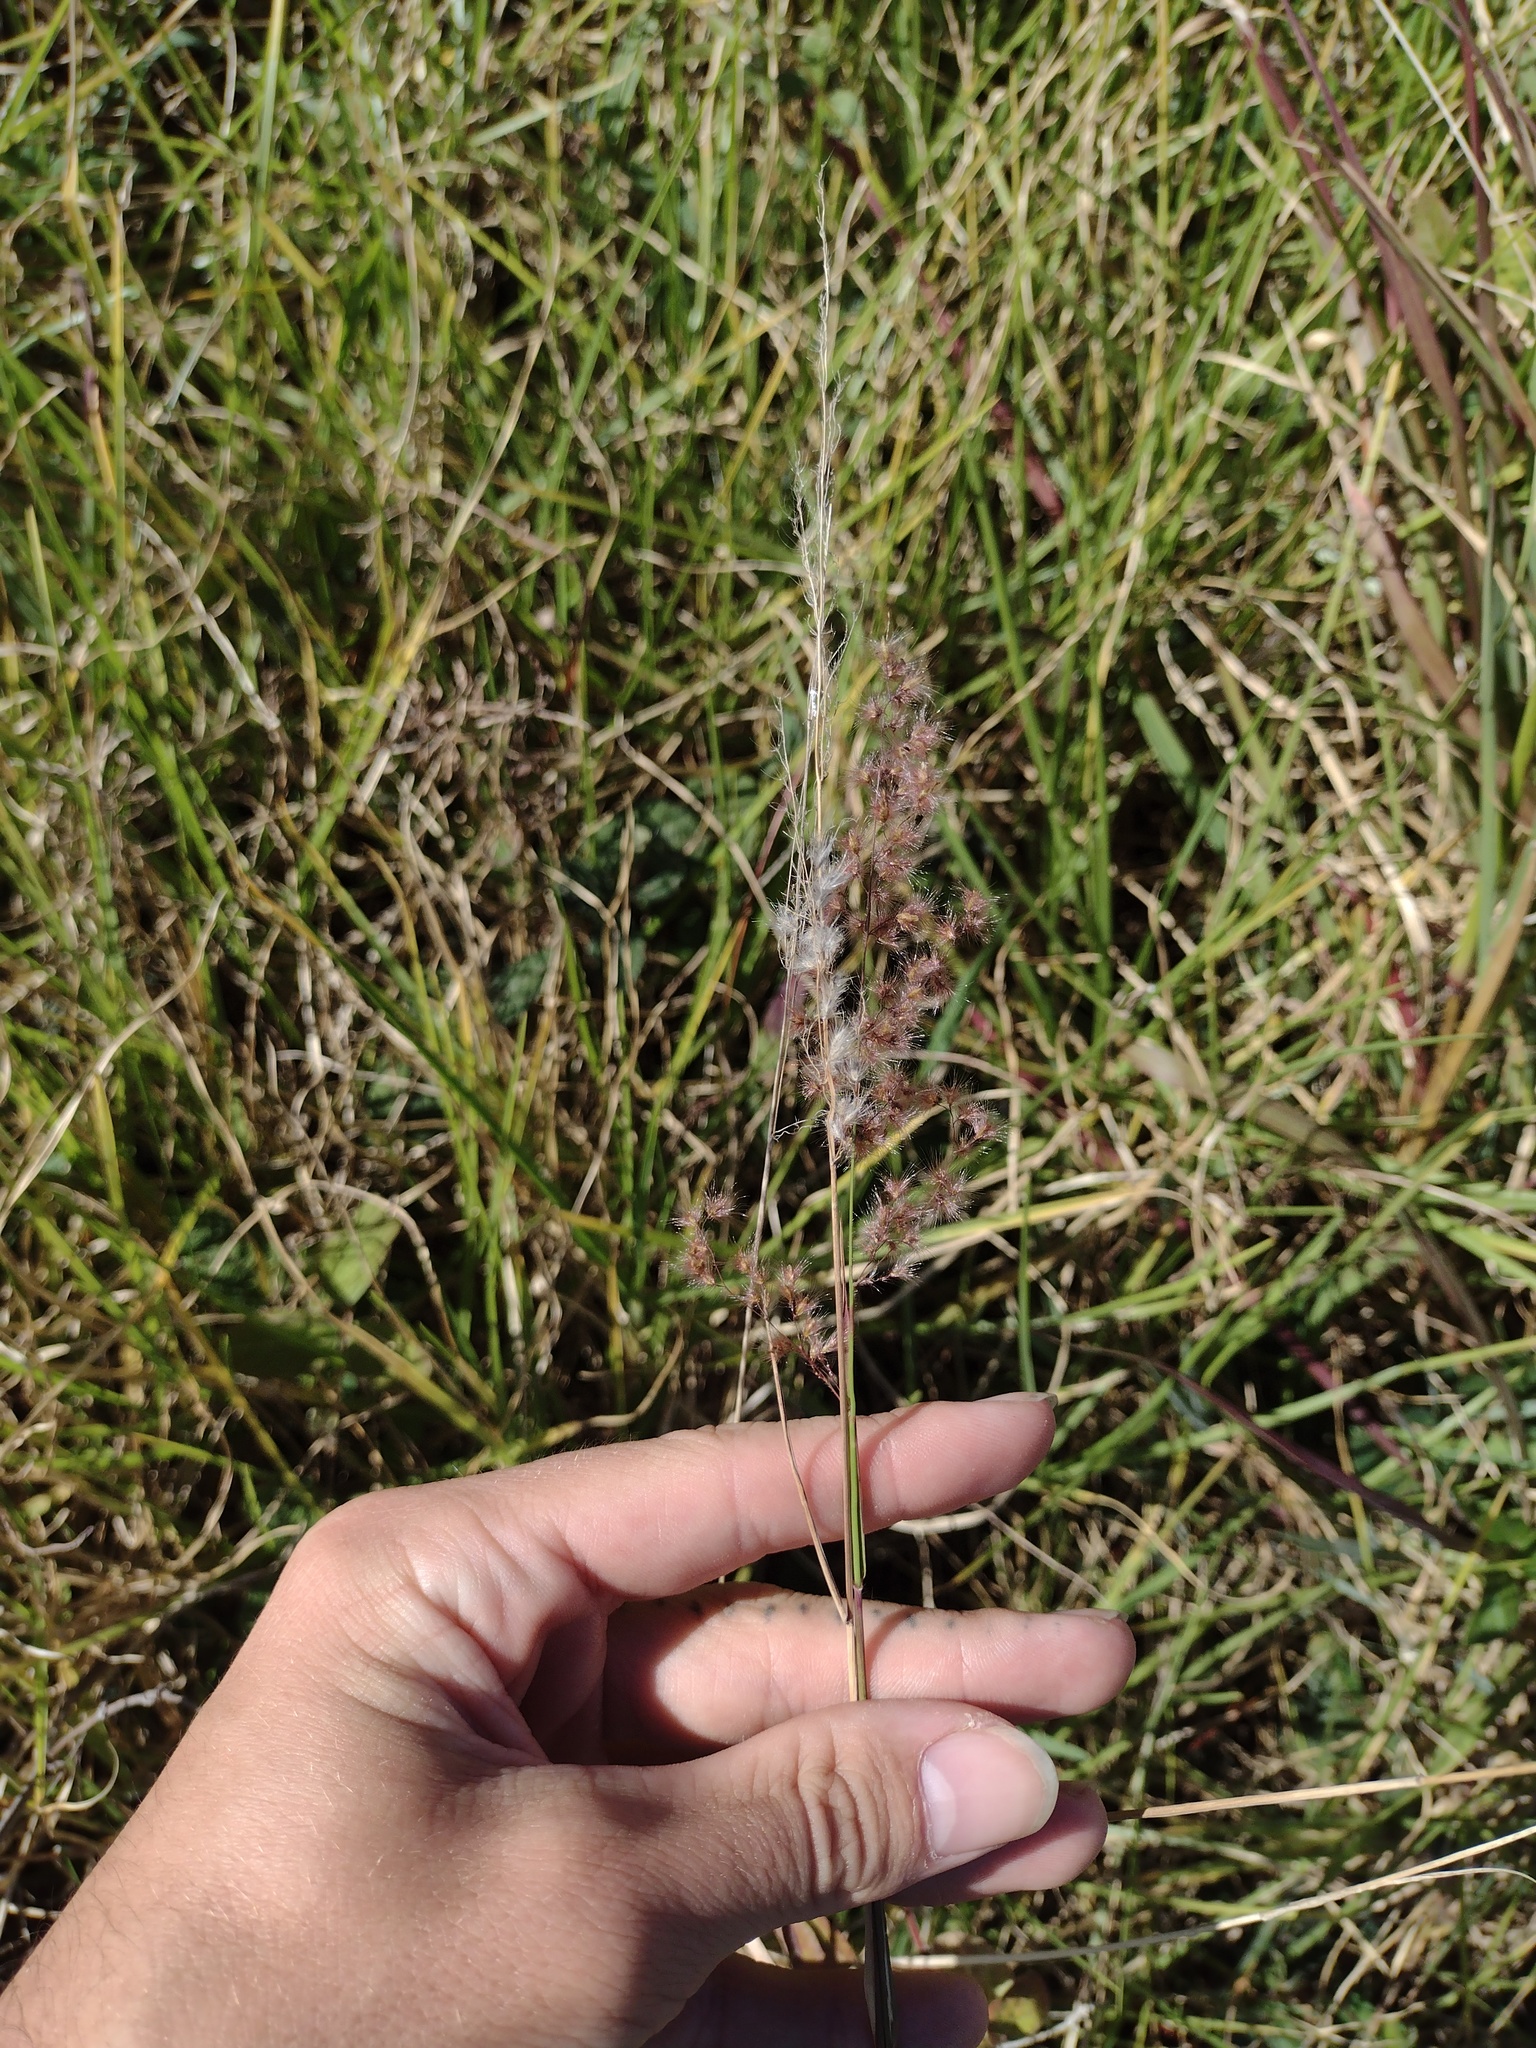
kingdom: Plantae
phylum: Tracheophyta
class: Liliopsida
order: Poales
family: Poaceae
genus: Melinis
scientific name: Melinis repens
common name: Rose natal grass
